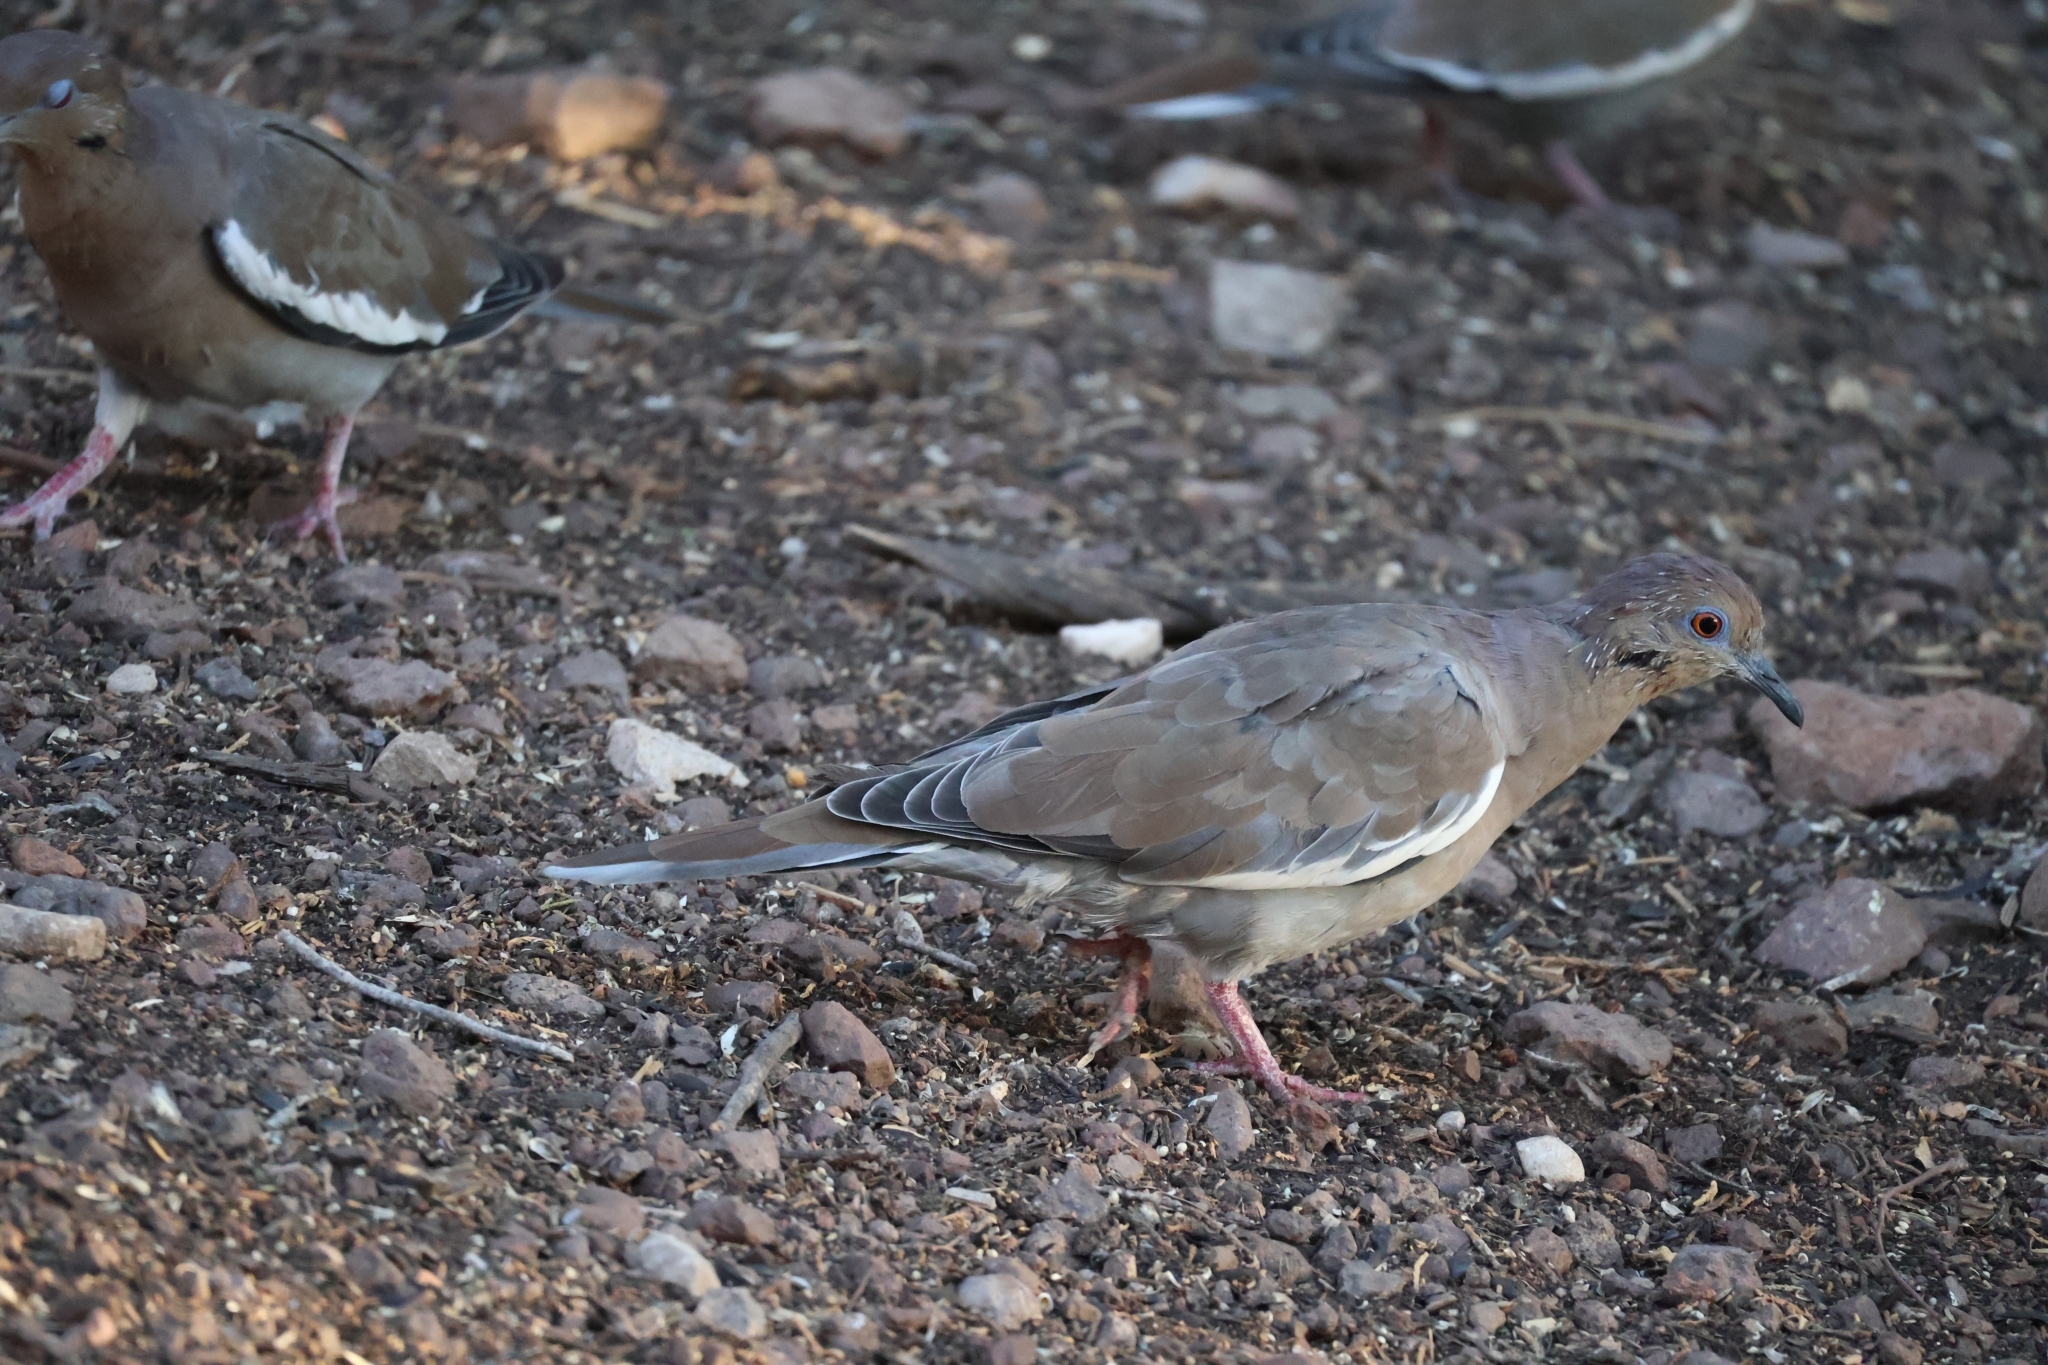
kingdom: Animalia
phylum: Chordata
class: Aves
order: Columbiformes
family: Columbidae
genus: Zenaida
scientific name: Zenaida asiatica
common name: White-winged dove
